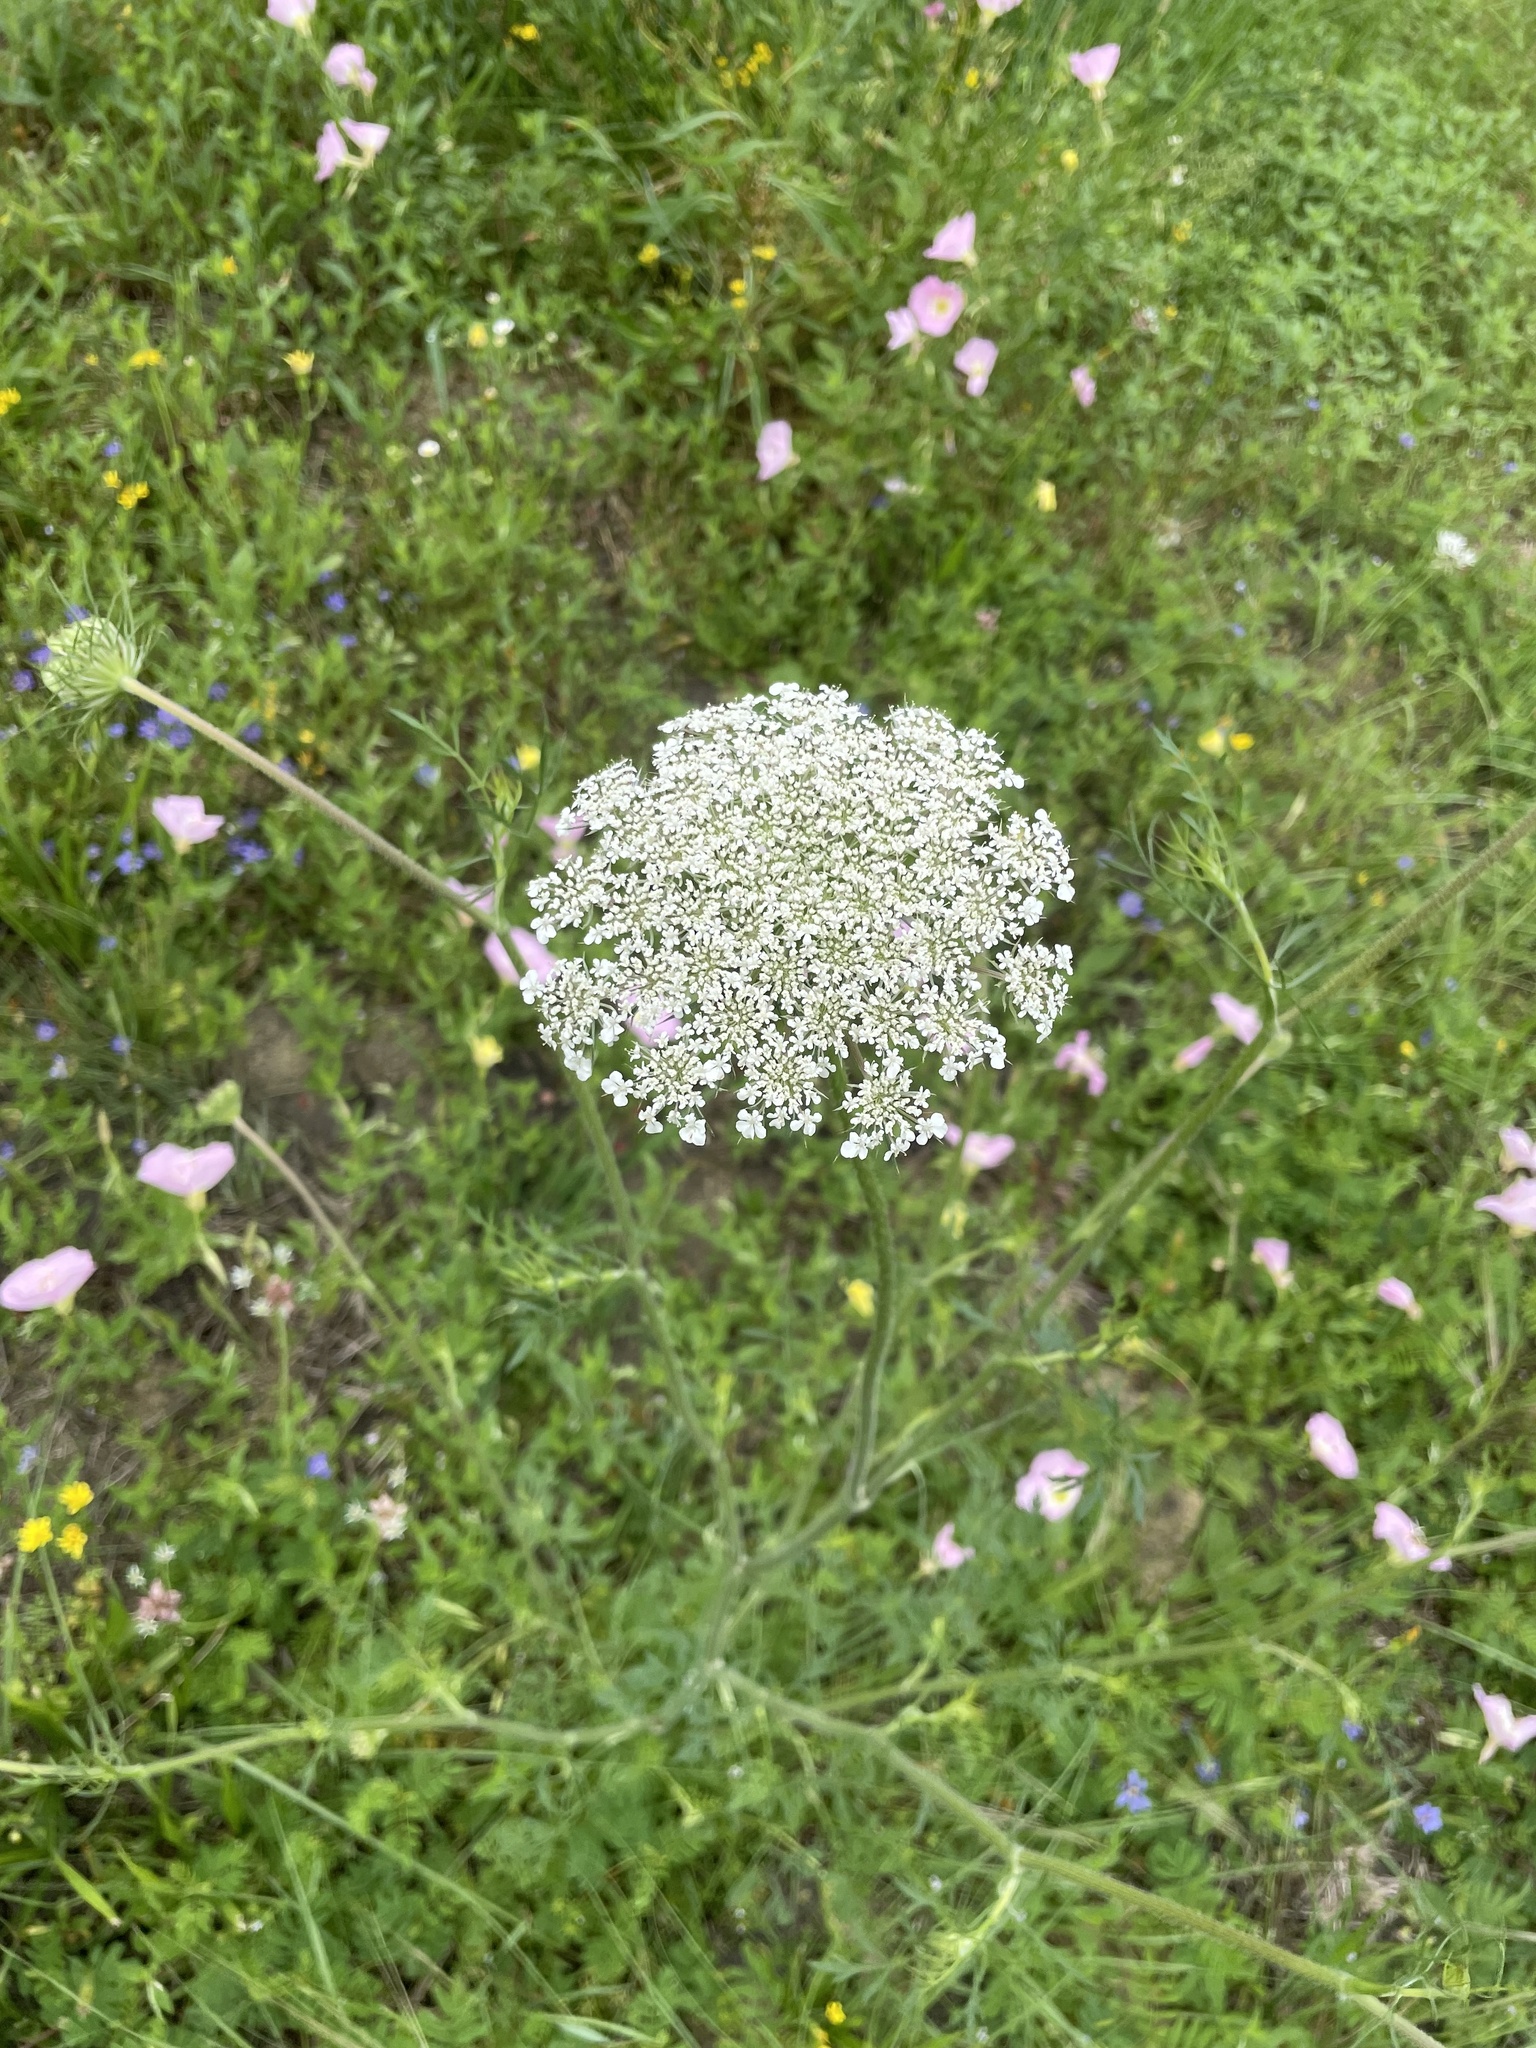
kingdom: Plantae
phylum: Tracheophyta
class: Magnoliopsida
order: Apiales
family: Apiaceae
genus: Daucus
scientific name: Daucus carota
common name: Wild carrot
